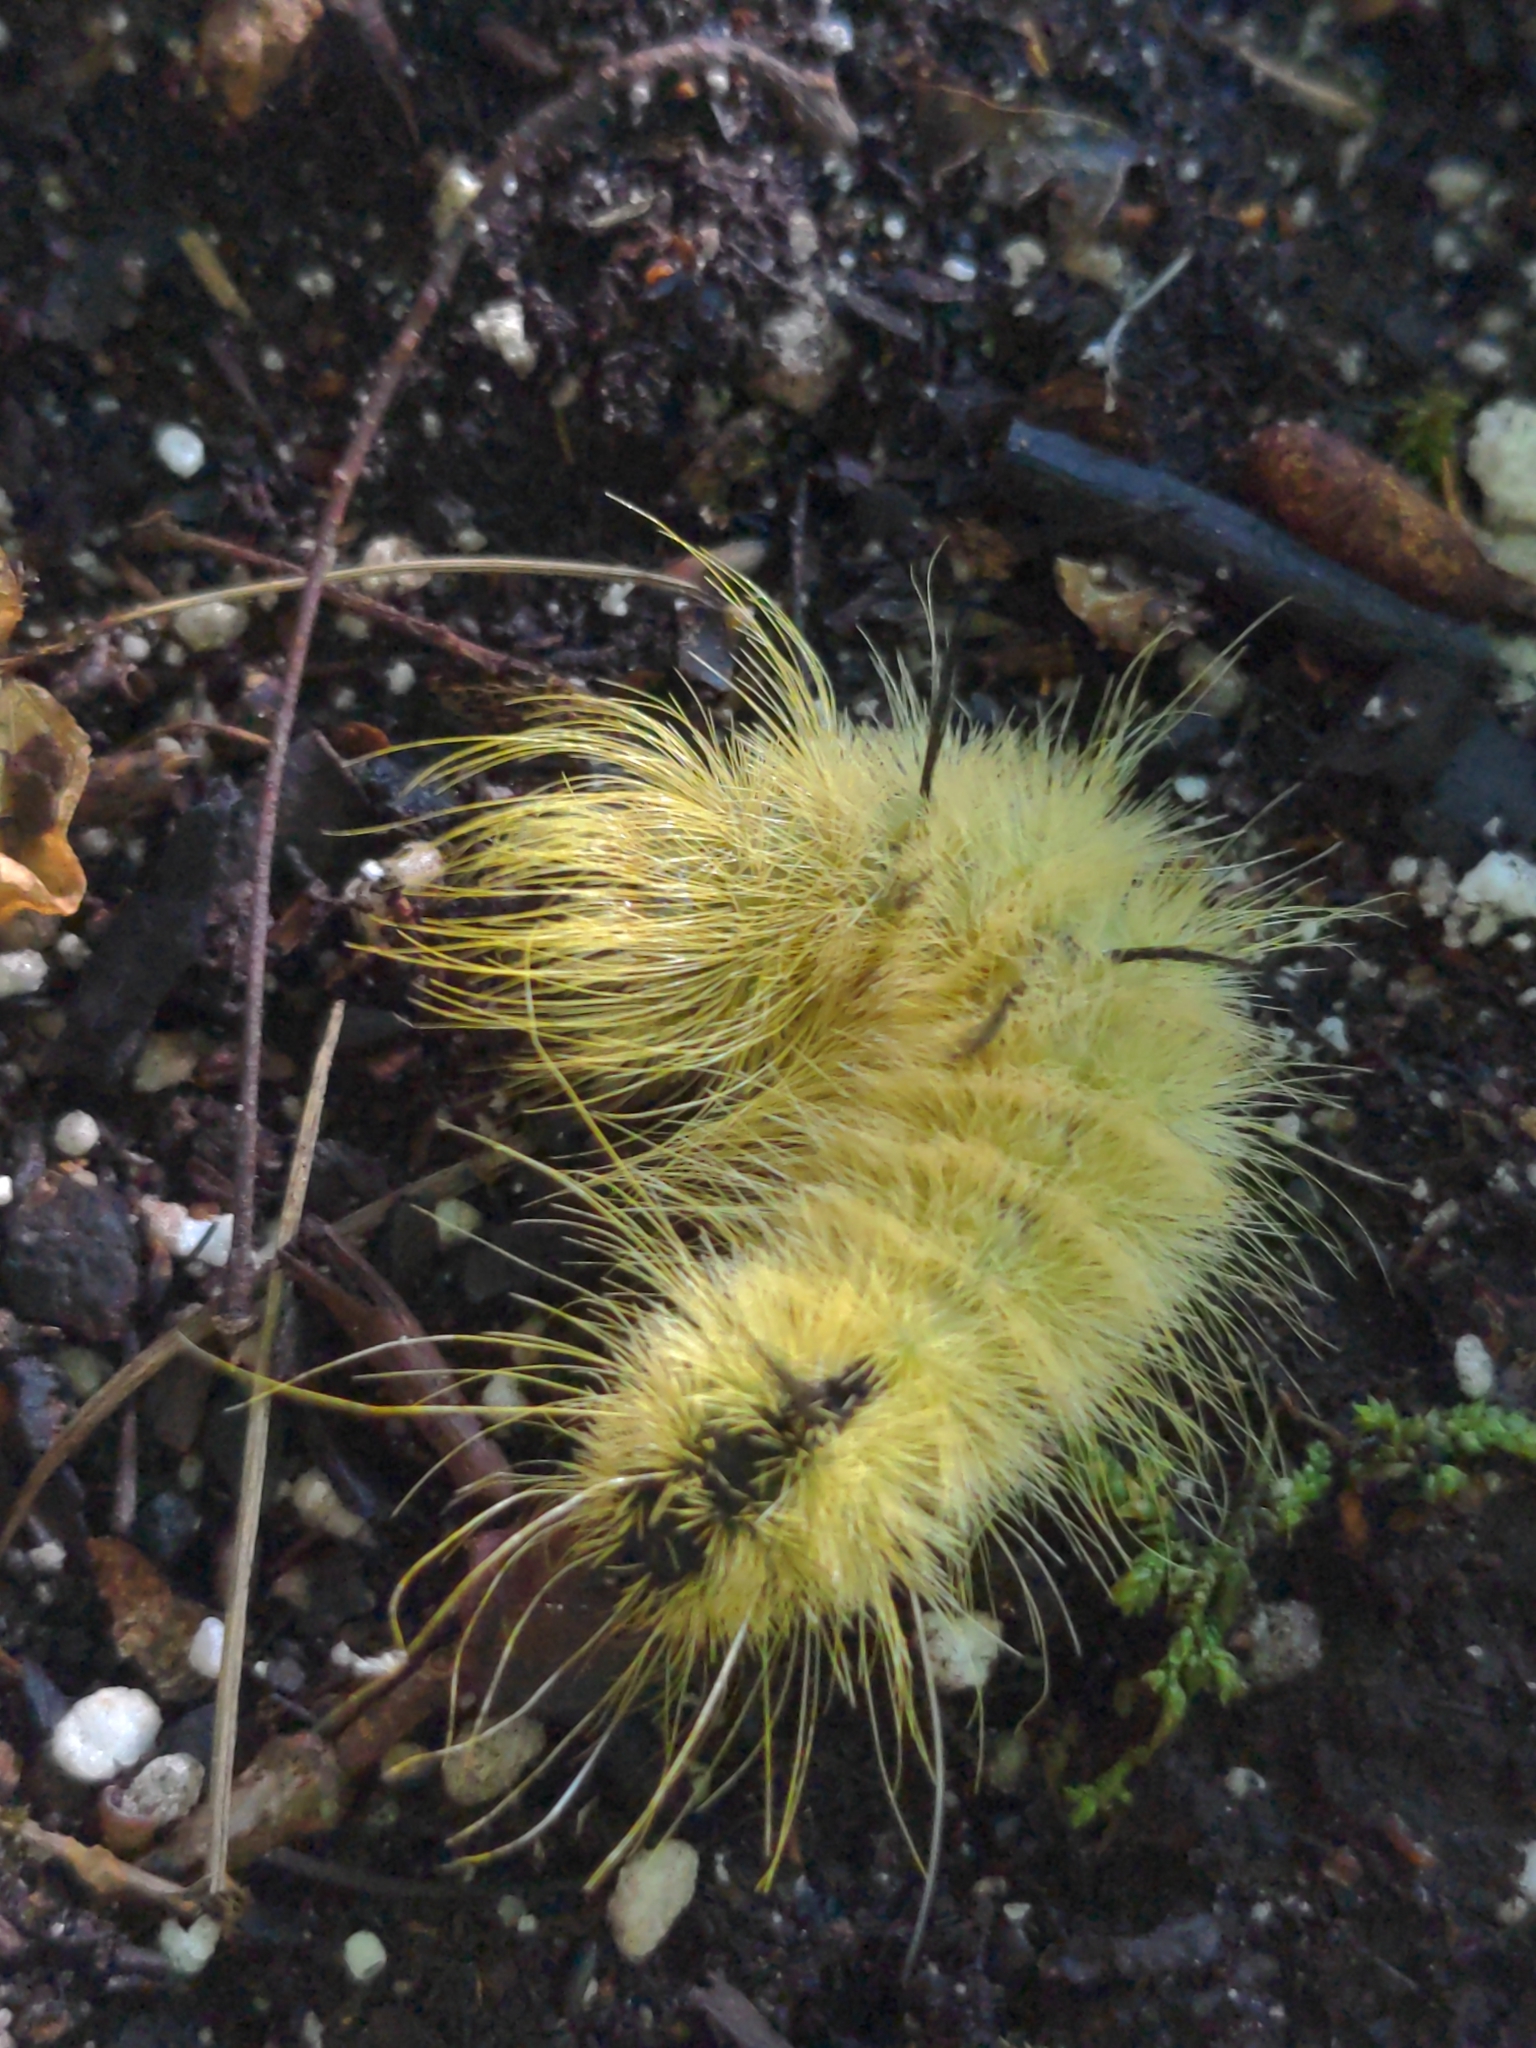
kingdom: Animalia
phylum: Arthropoda
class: Insecta
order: Lepidoptera
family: Noctuidae
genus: Acronicta
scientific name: Acronicta americana
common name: American dagger
